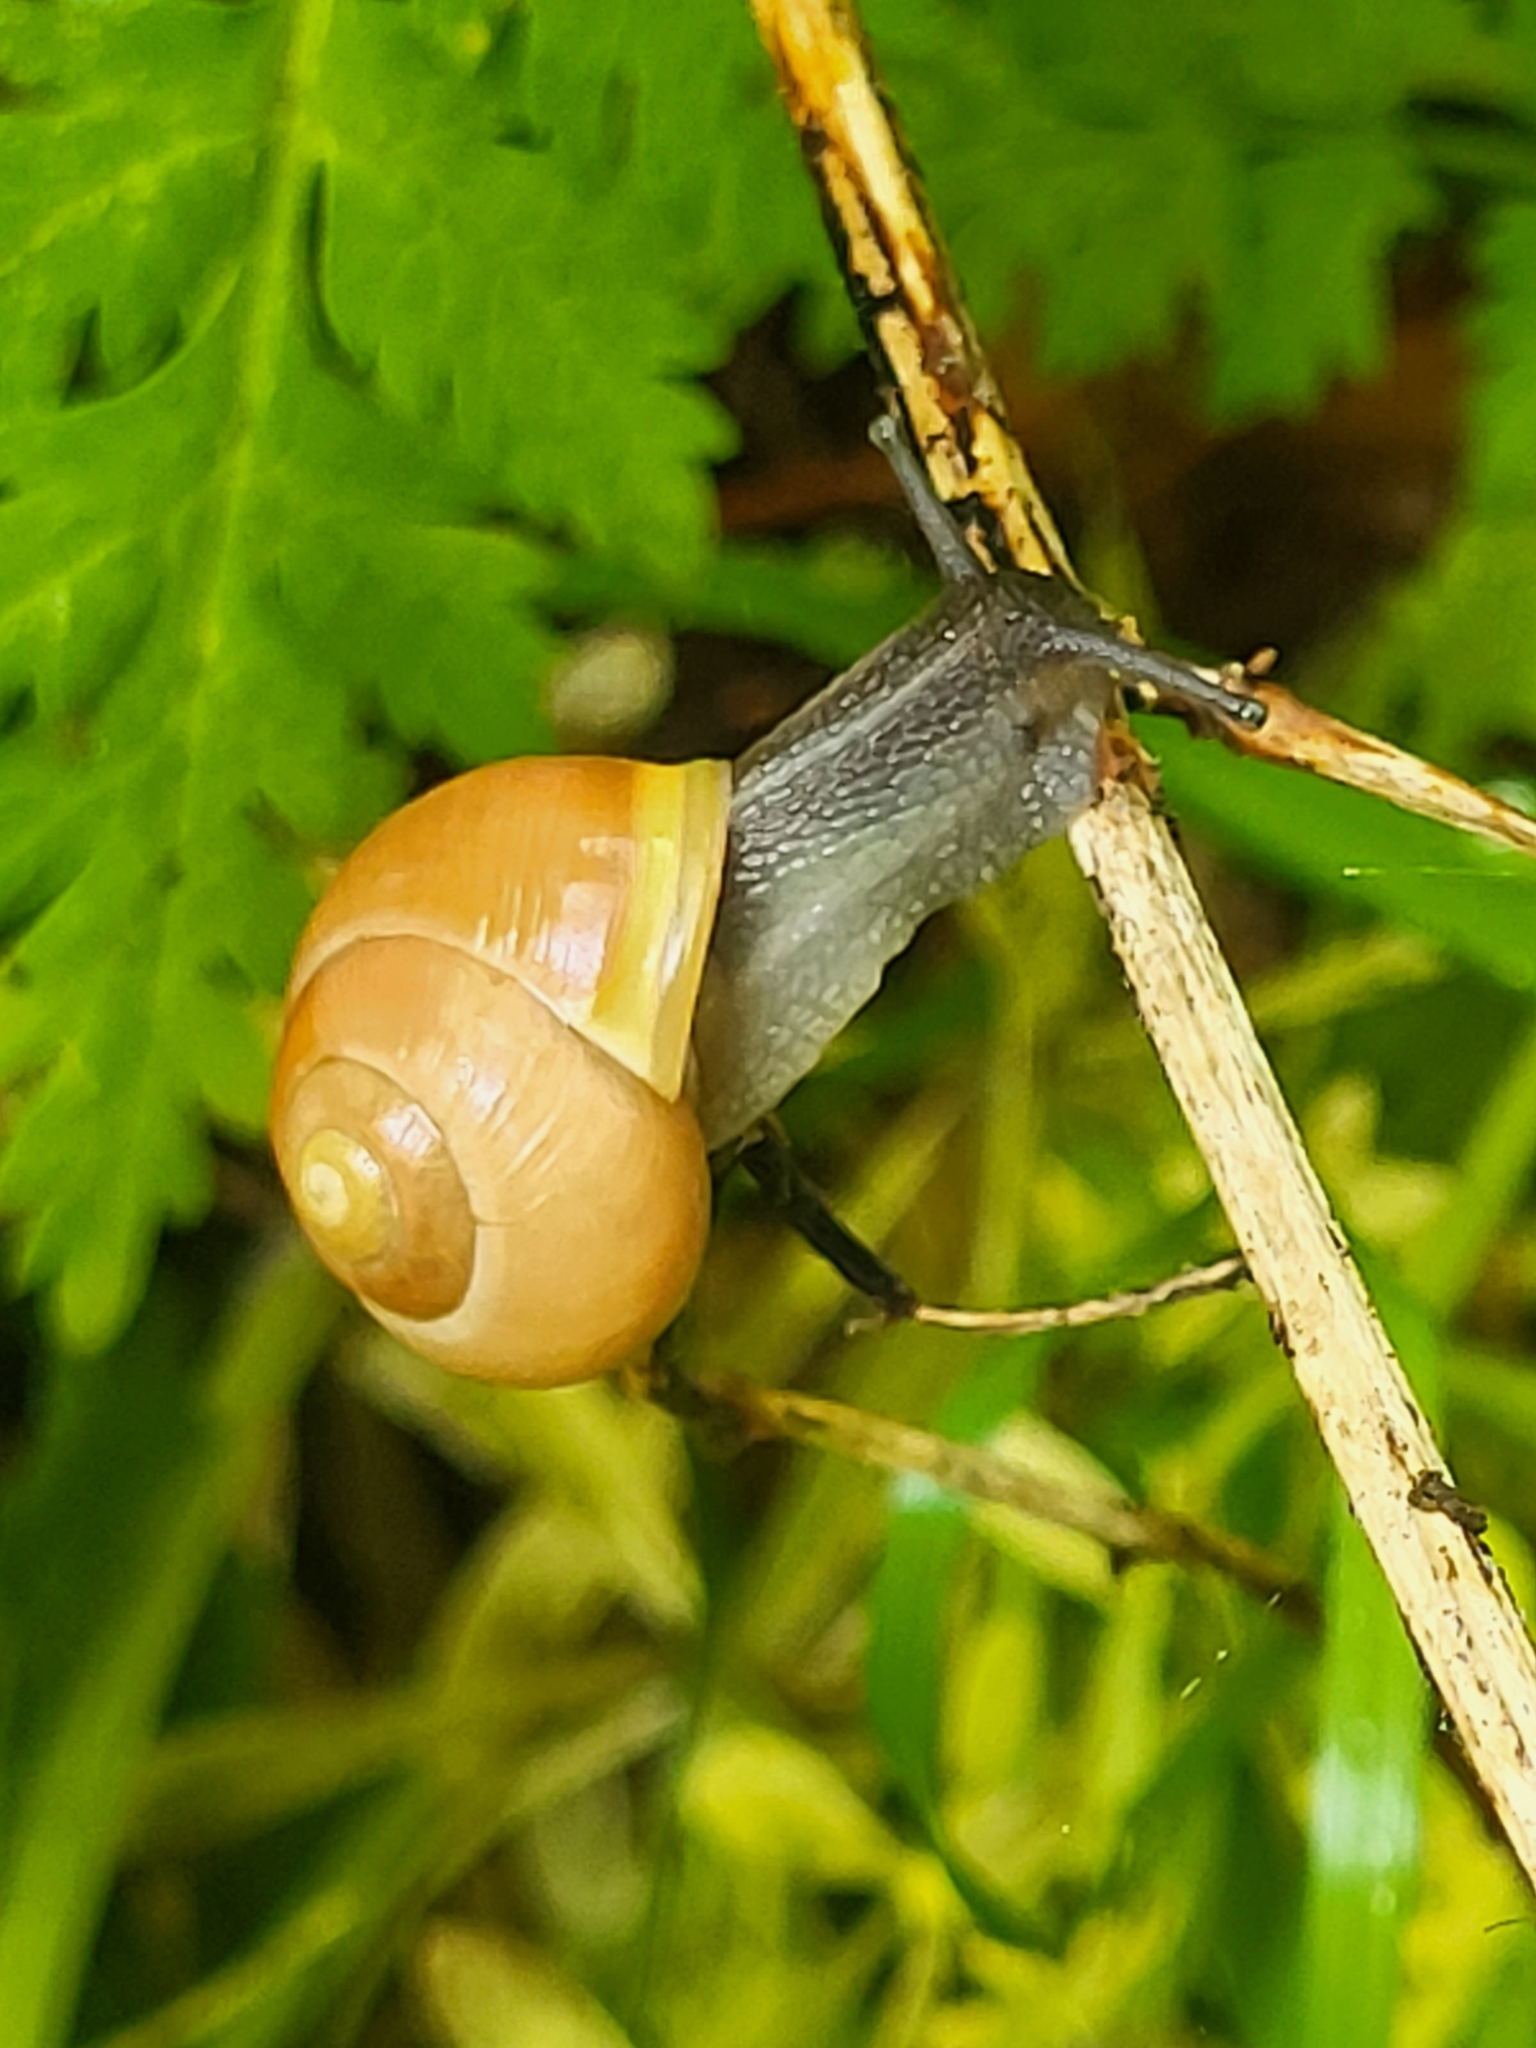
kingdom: Animalia
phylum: Mollusca
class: Gastropoda
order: Stylommatophora
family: Helicidae
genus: Cepaea
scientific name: Cepaea hortensis
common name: White-lip gardensnail
